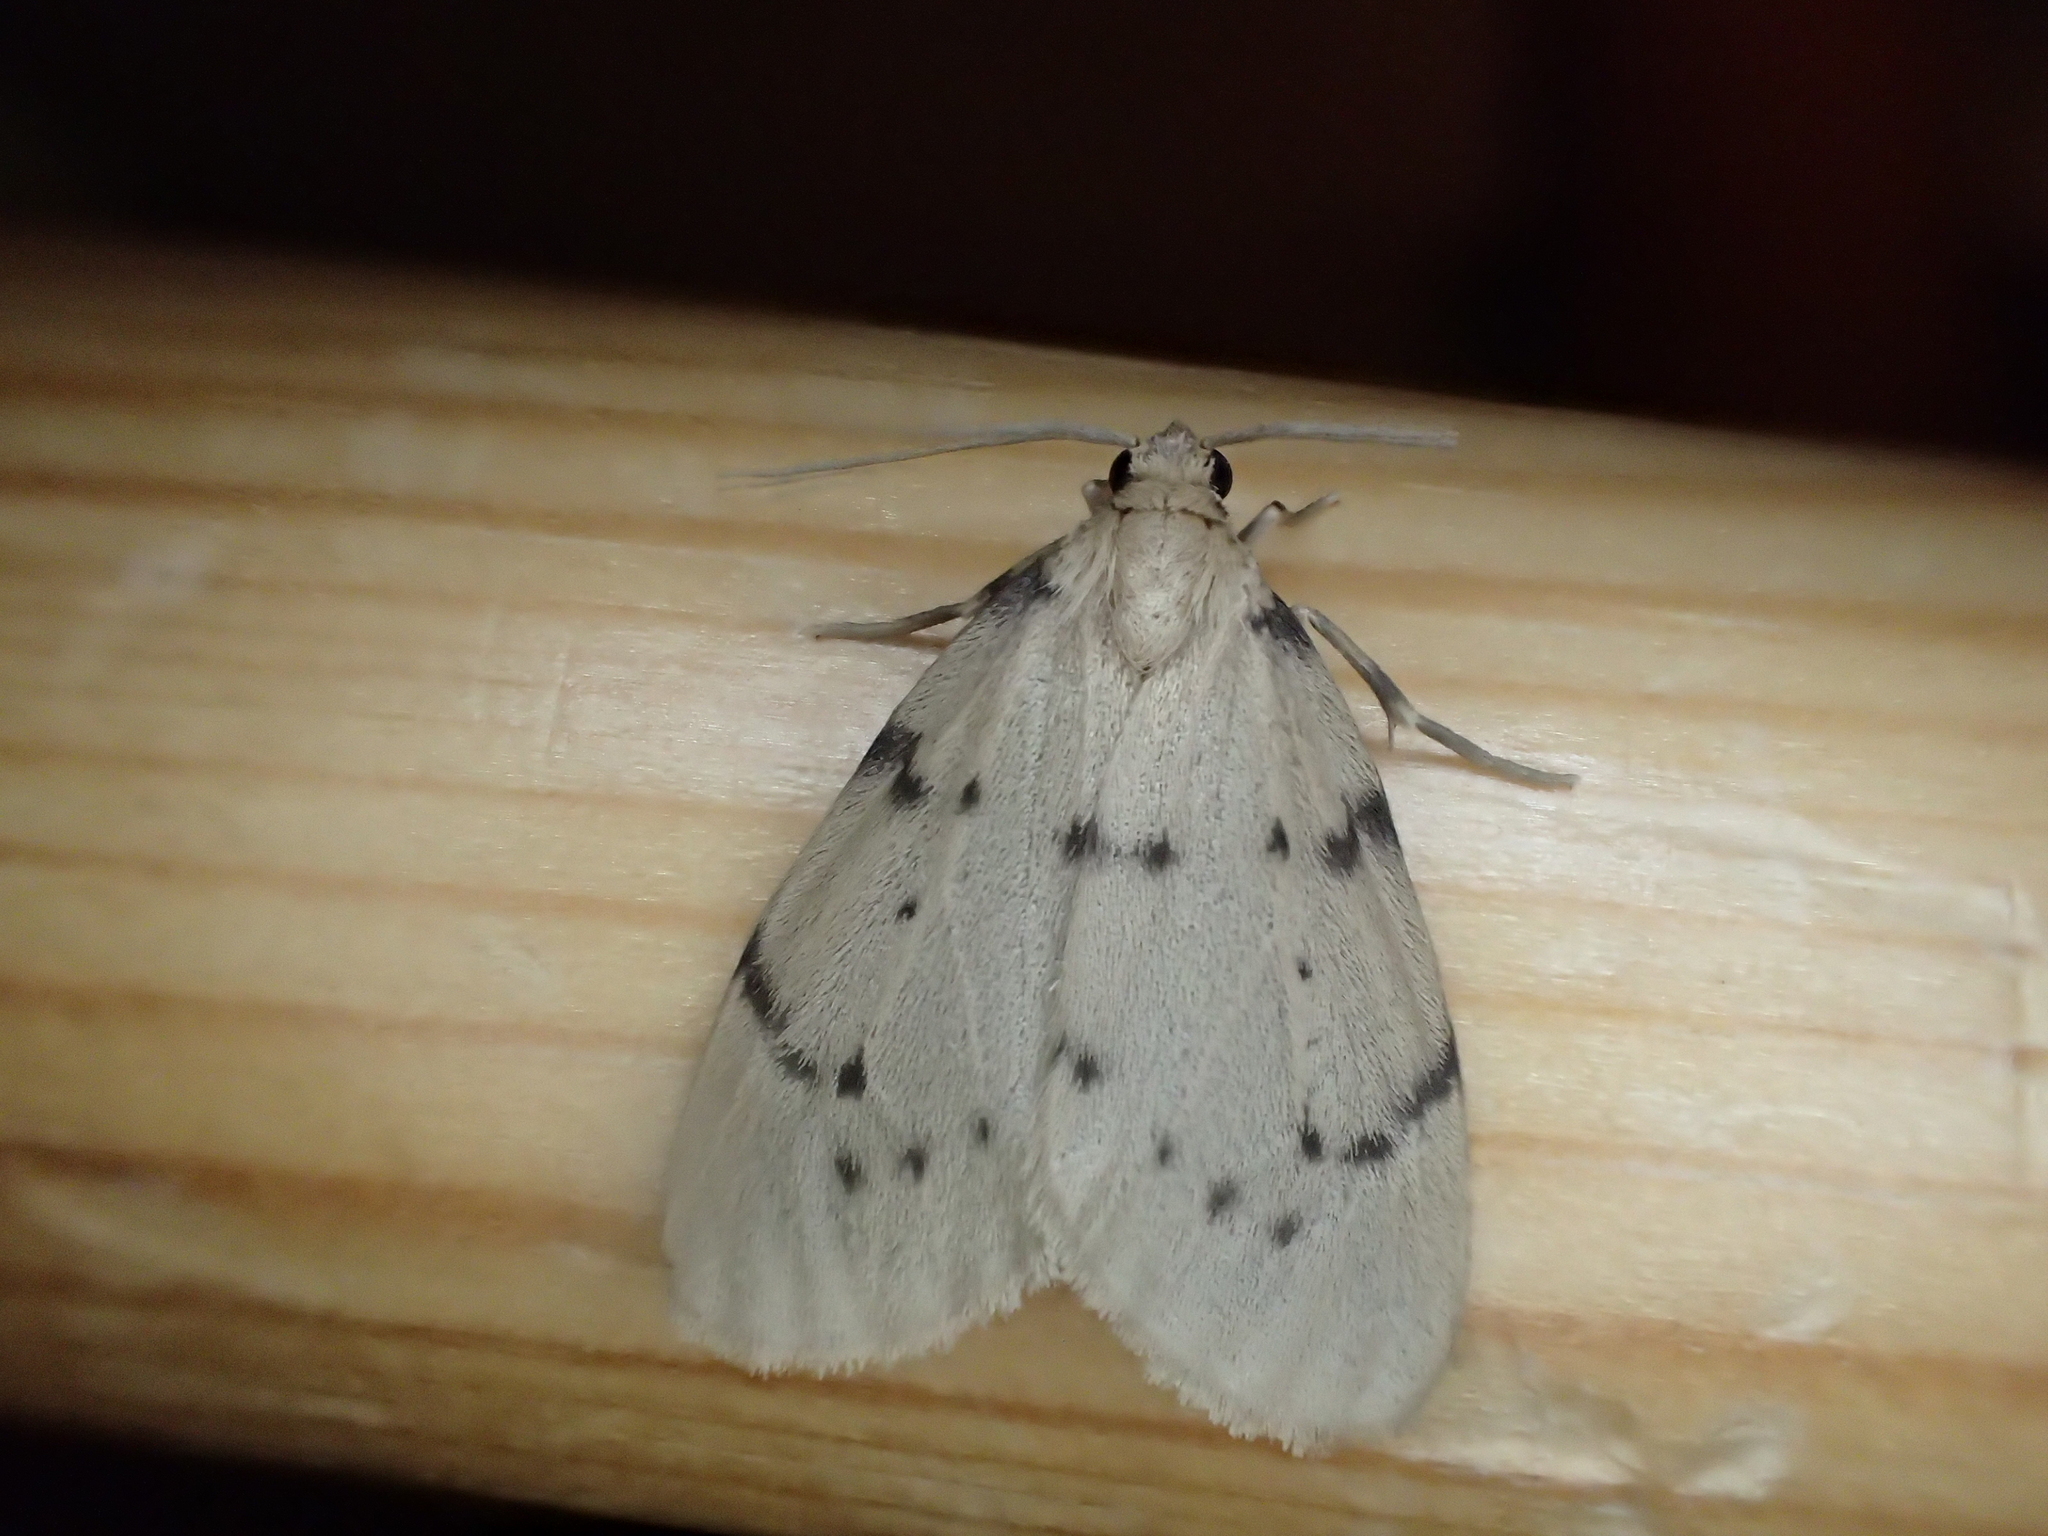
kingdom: Animalia
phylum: Arthropoda
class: Insecta
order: Lepidoptera
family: Erebidae
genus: Paidia
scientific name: Paidia rica
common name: Glaucous muslin
